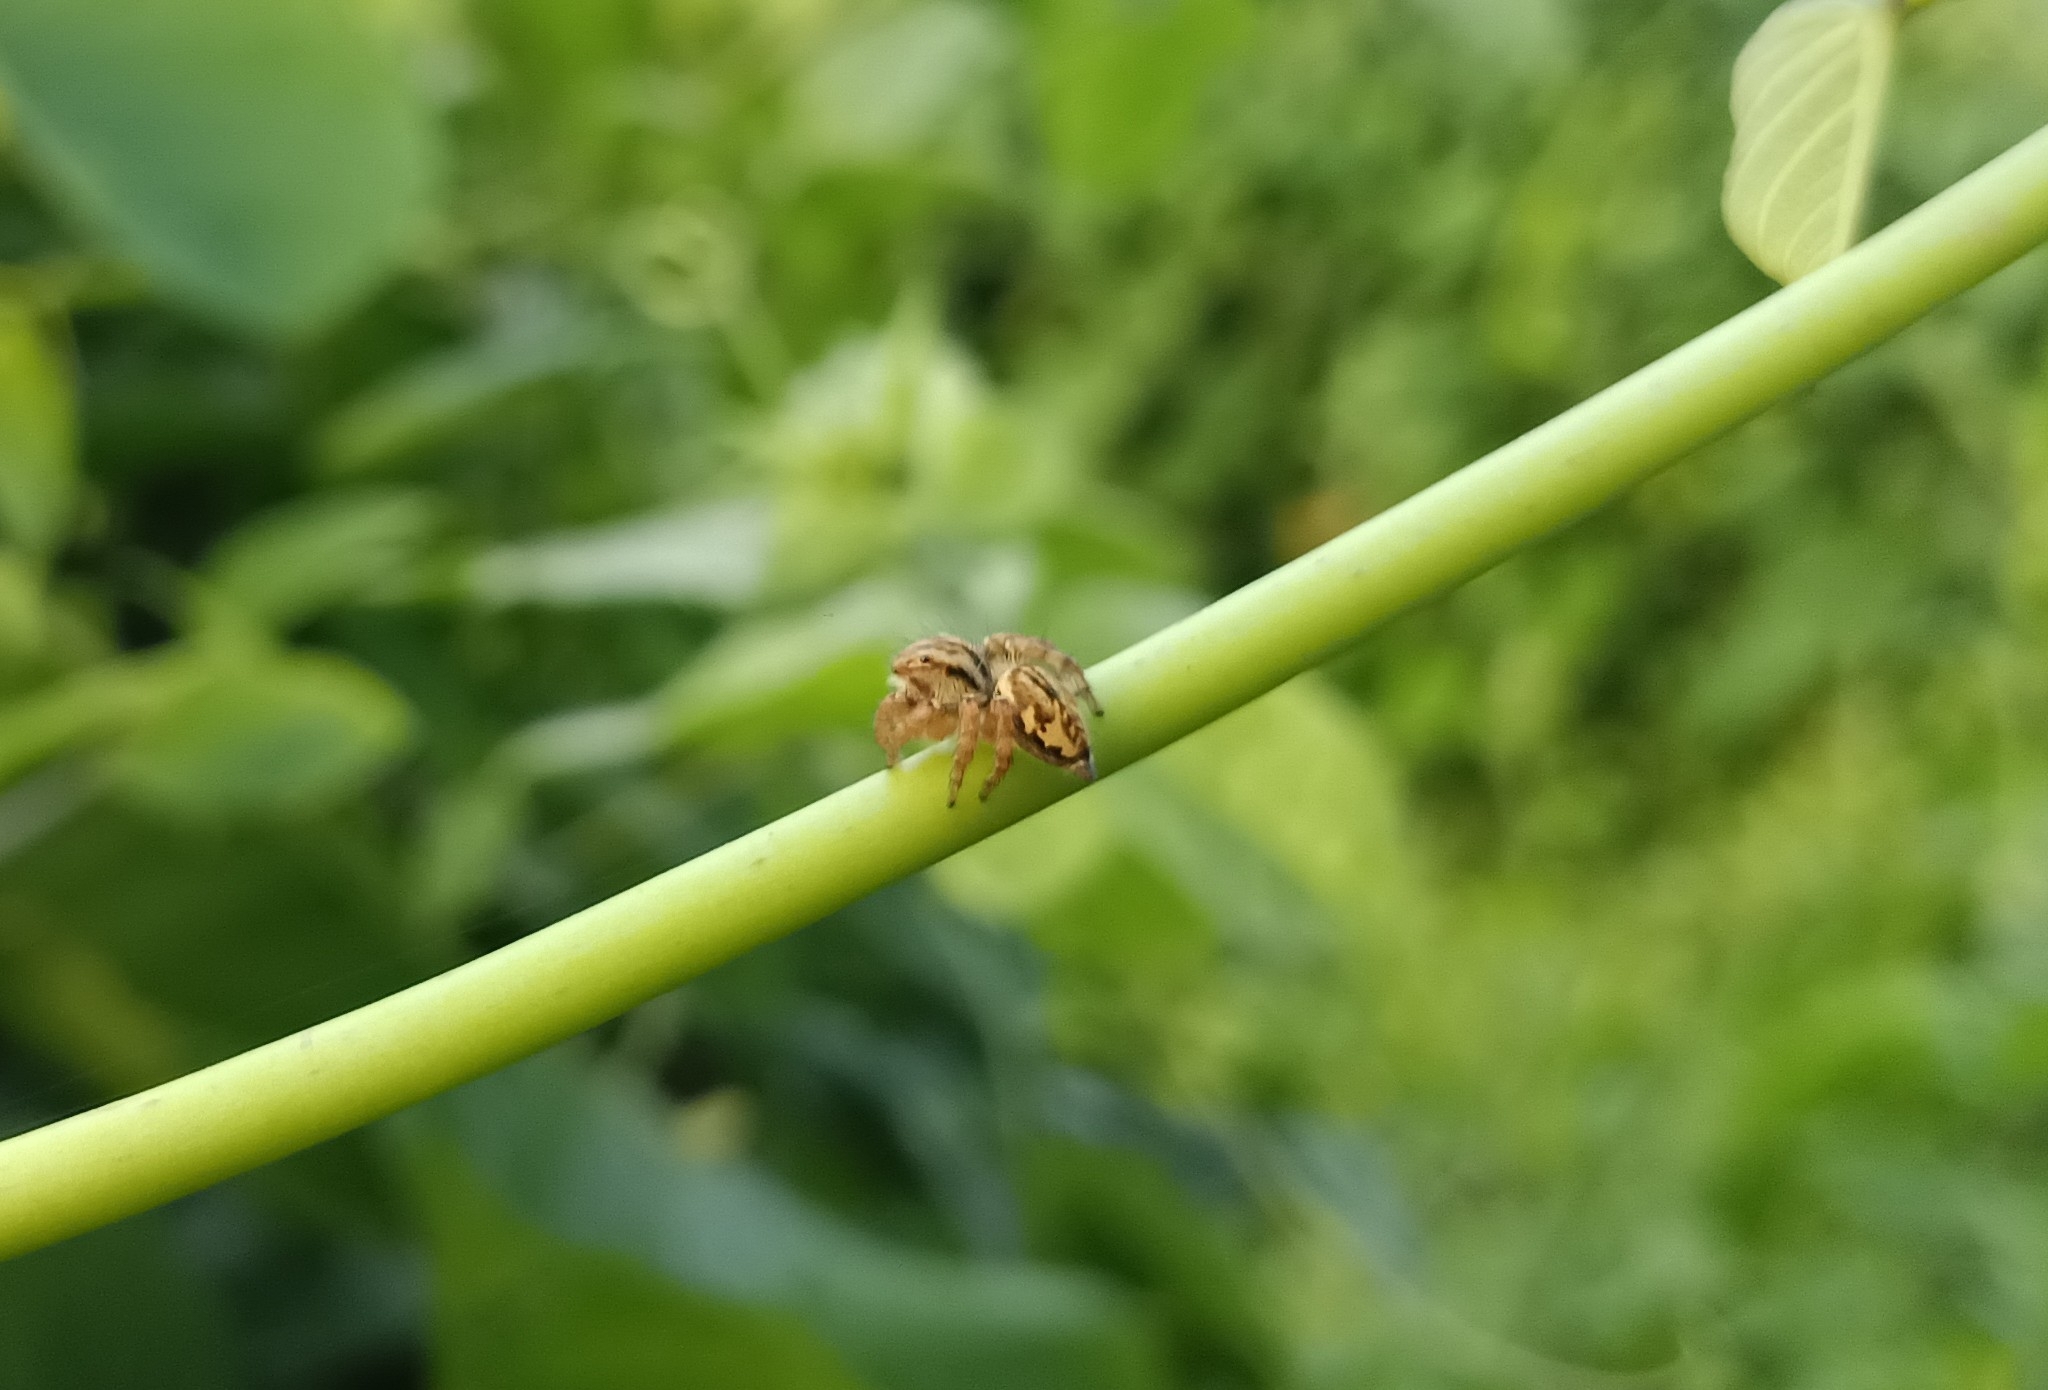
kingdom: Animalia
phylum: Arthropoda
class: Arachnida
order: Araneae
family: Salticidae
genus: Carrhotus
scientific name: Carrhotus viduus
